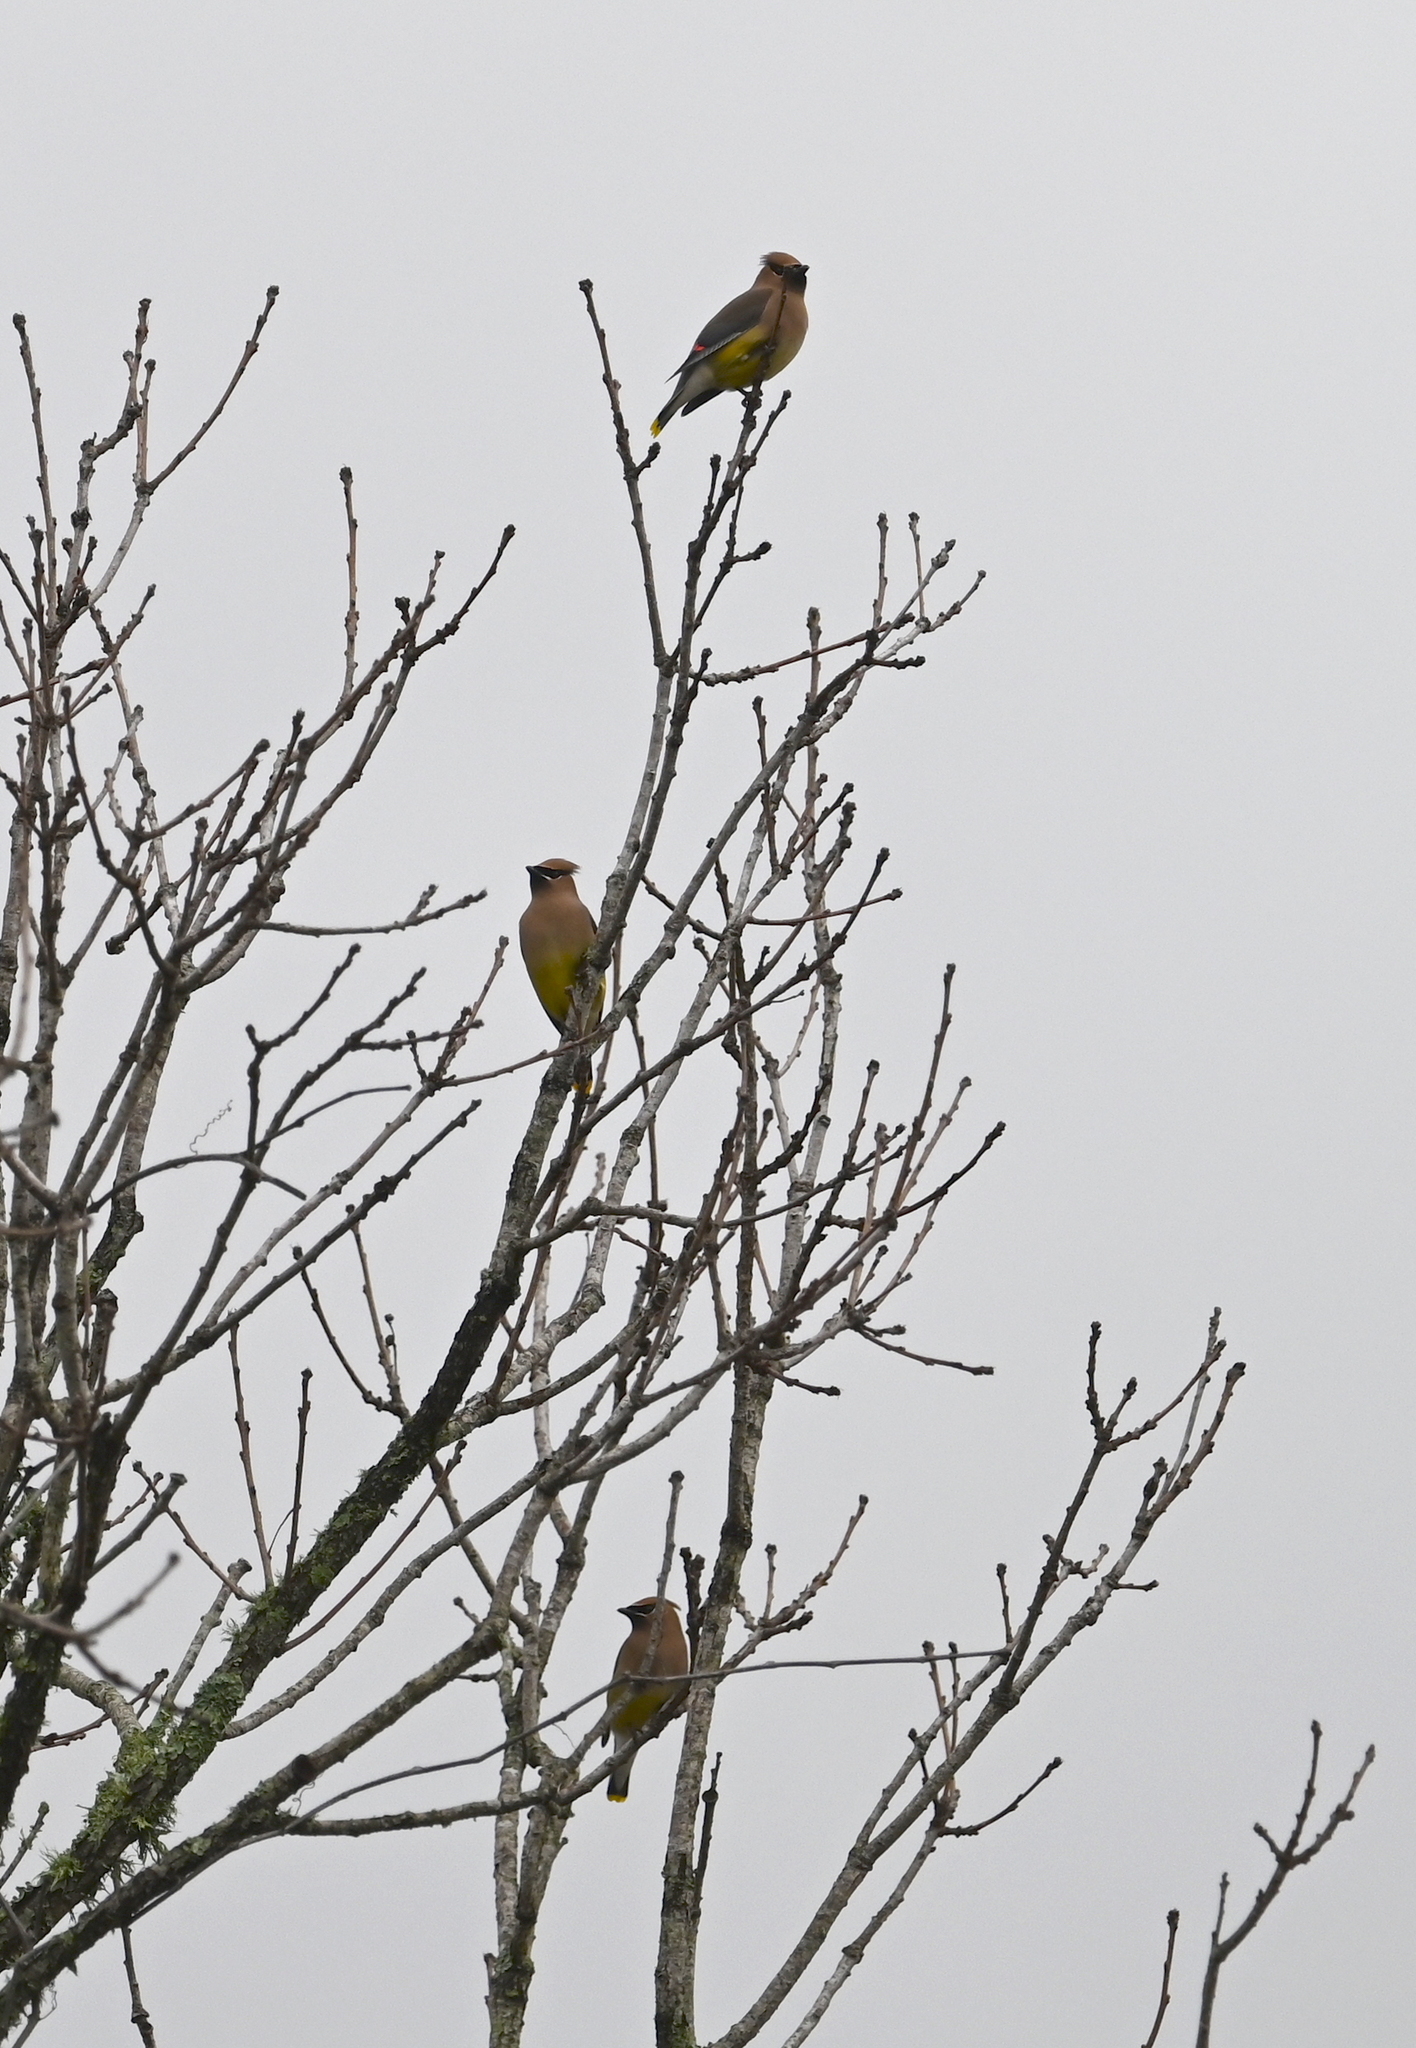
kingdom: Animalia
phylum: Chordata
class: Aves
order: Passeriformes
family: Bombycillidae
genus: Bombycilla
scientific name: Bombycilla cedrorum
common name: Cedar waxwing
